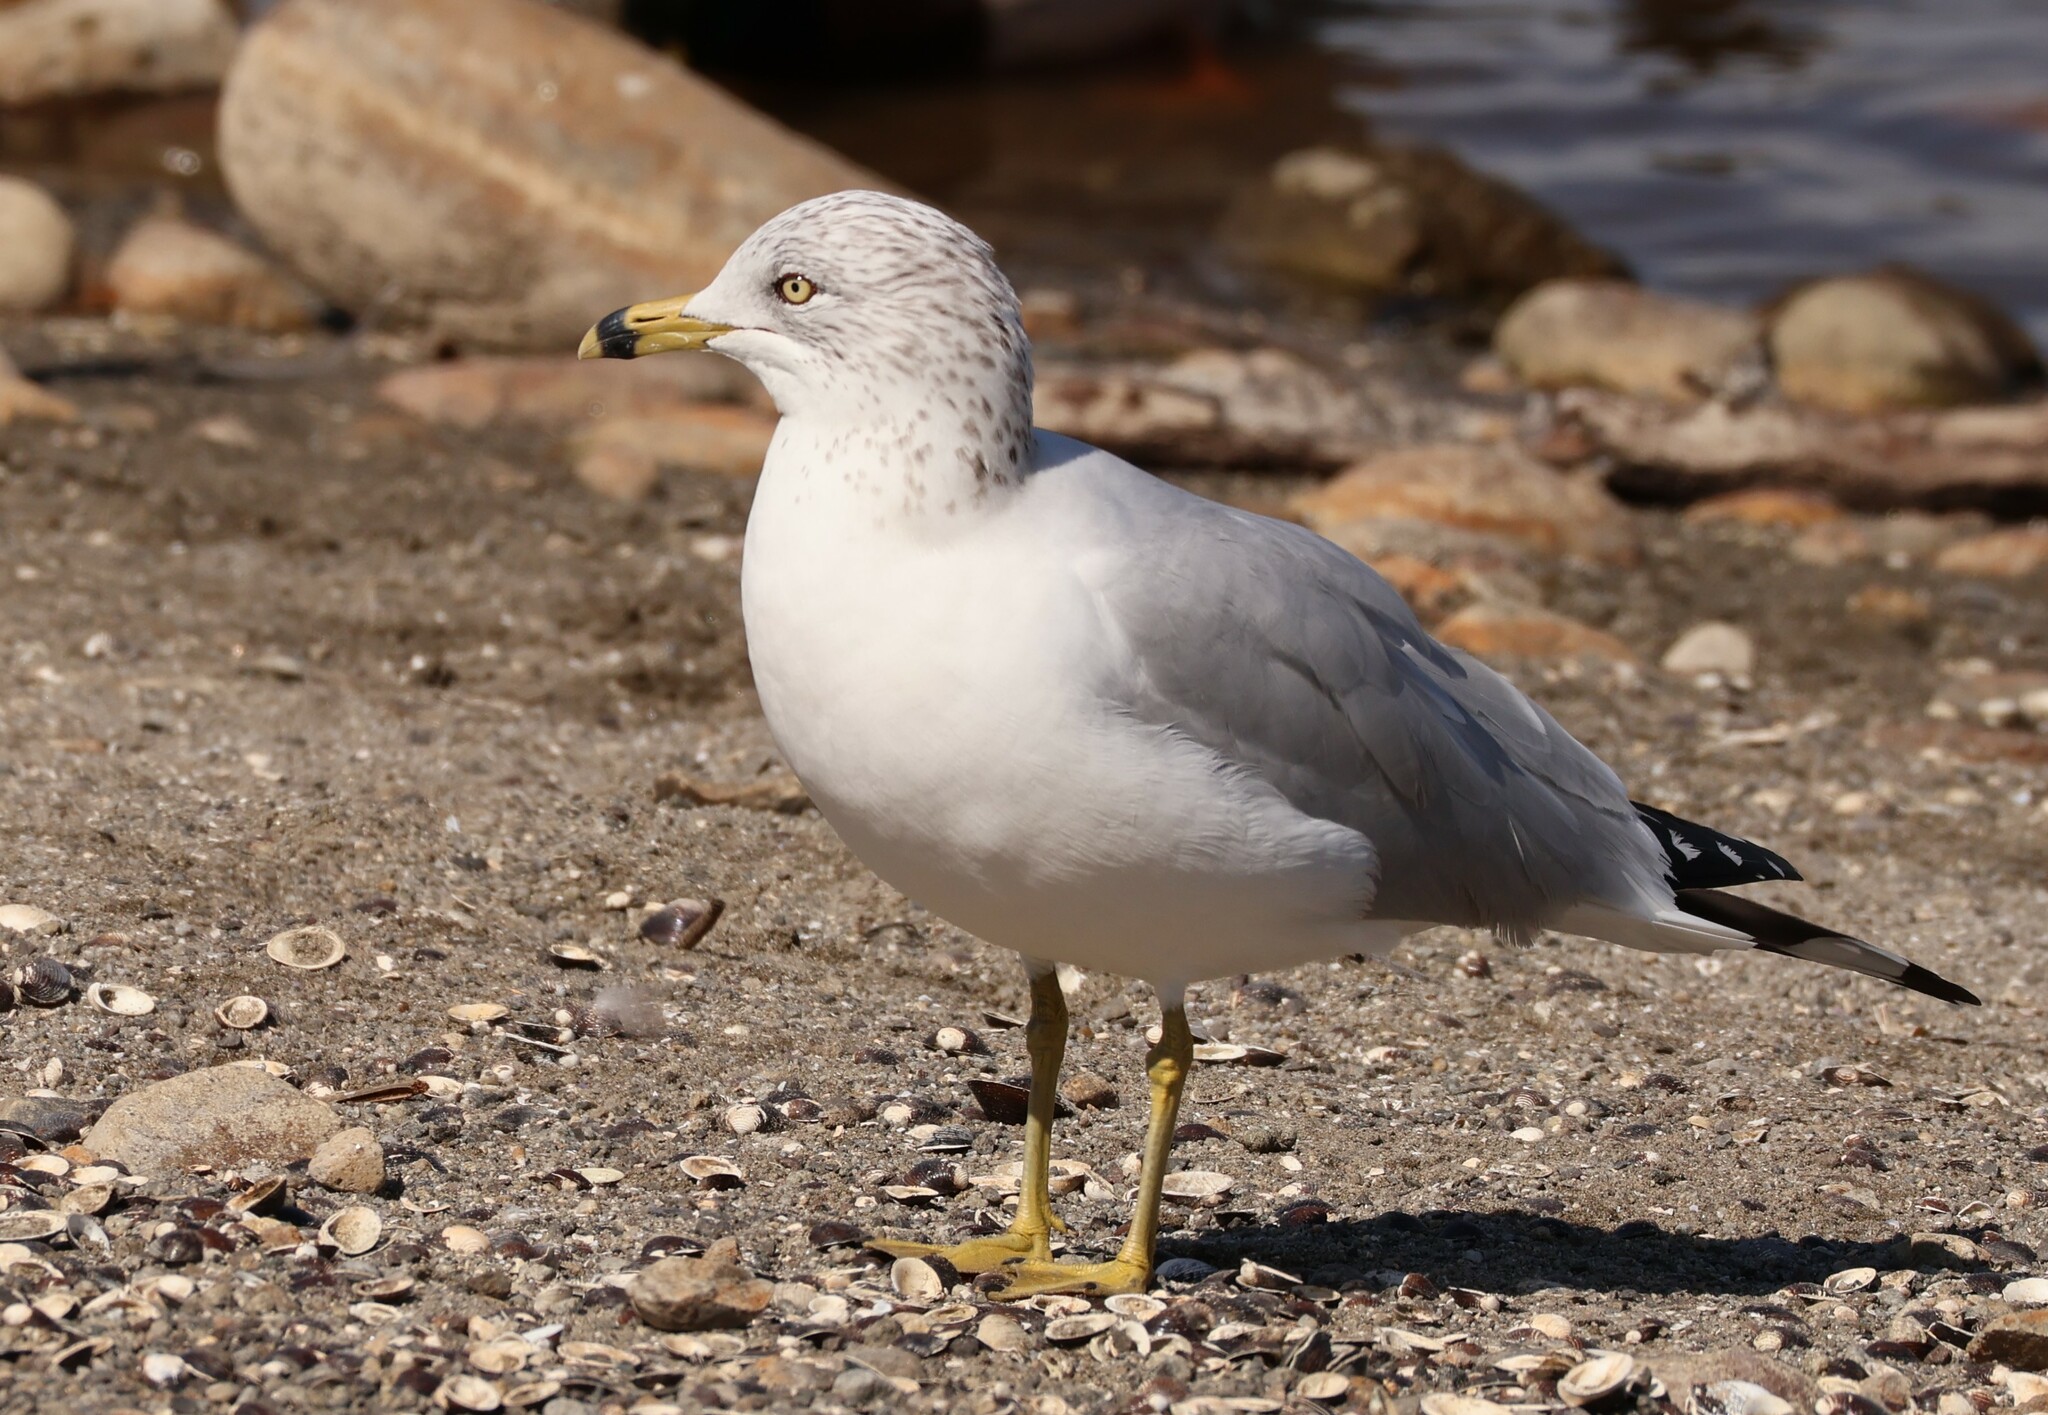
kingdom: Animalia
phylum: Chordata
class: Aves
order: Charadriiformes
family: Laridae
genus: Larus
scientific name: Larus delawarensis
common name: Ring-billed gull
